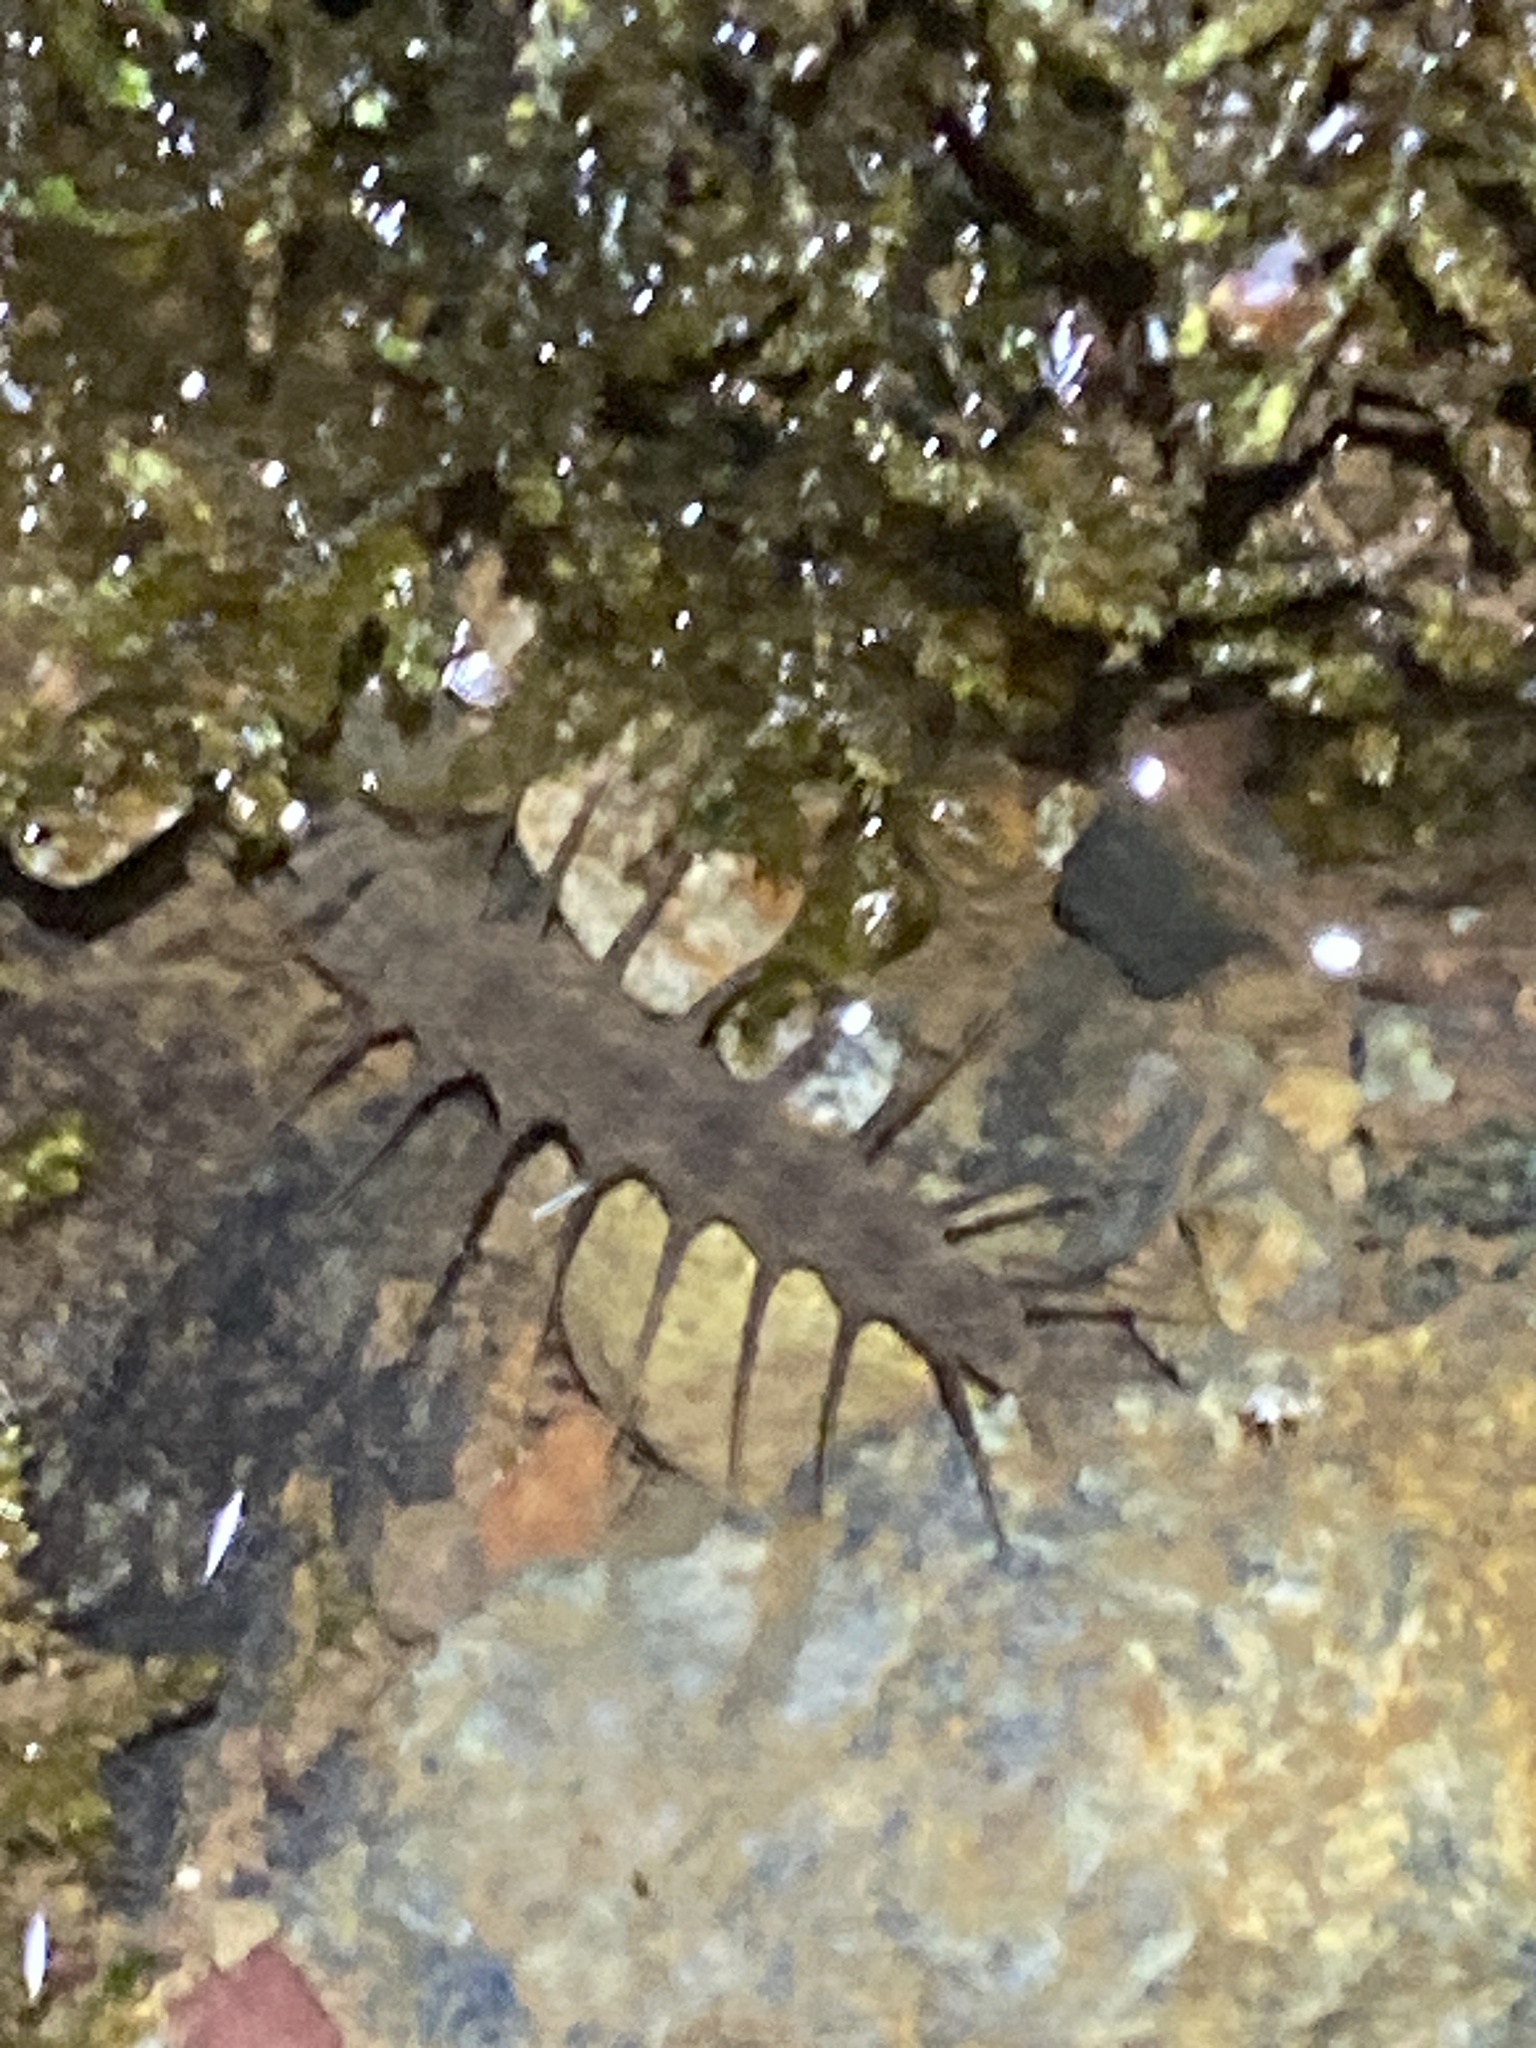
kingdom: Animalia
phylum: Arthropoda
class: Insecta
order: Megaloptera
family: Corydalidae
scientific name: Corydalidae
